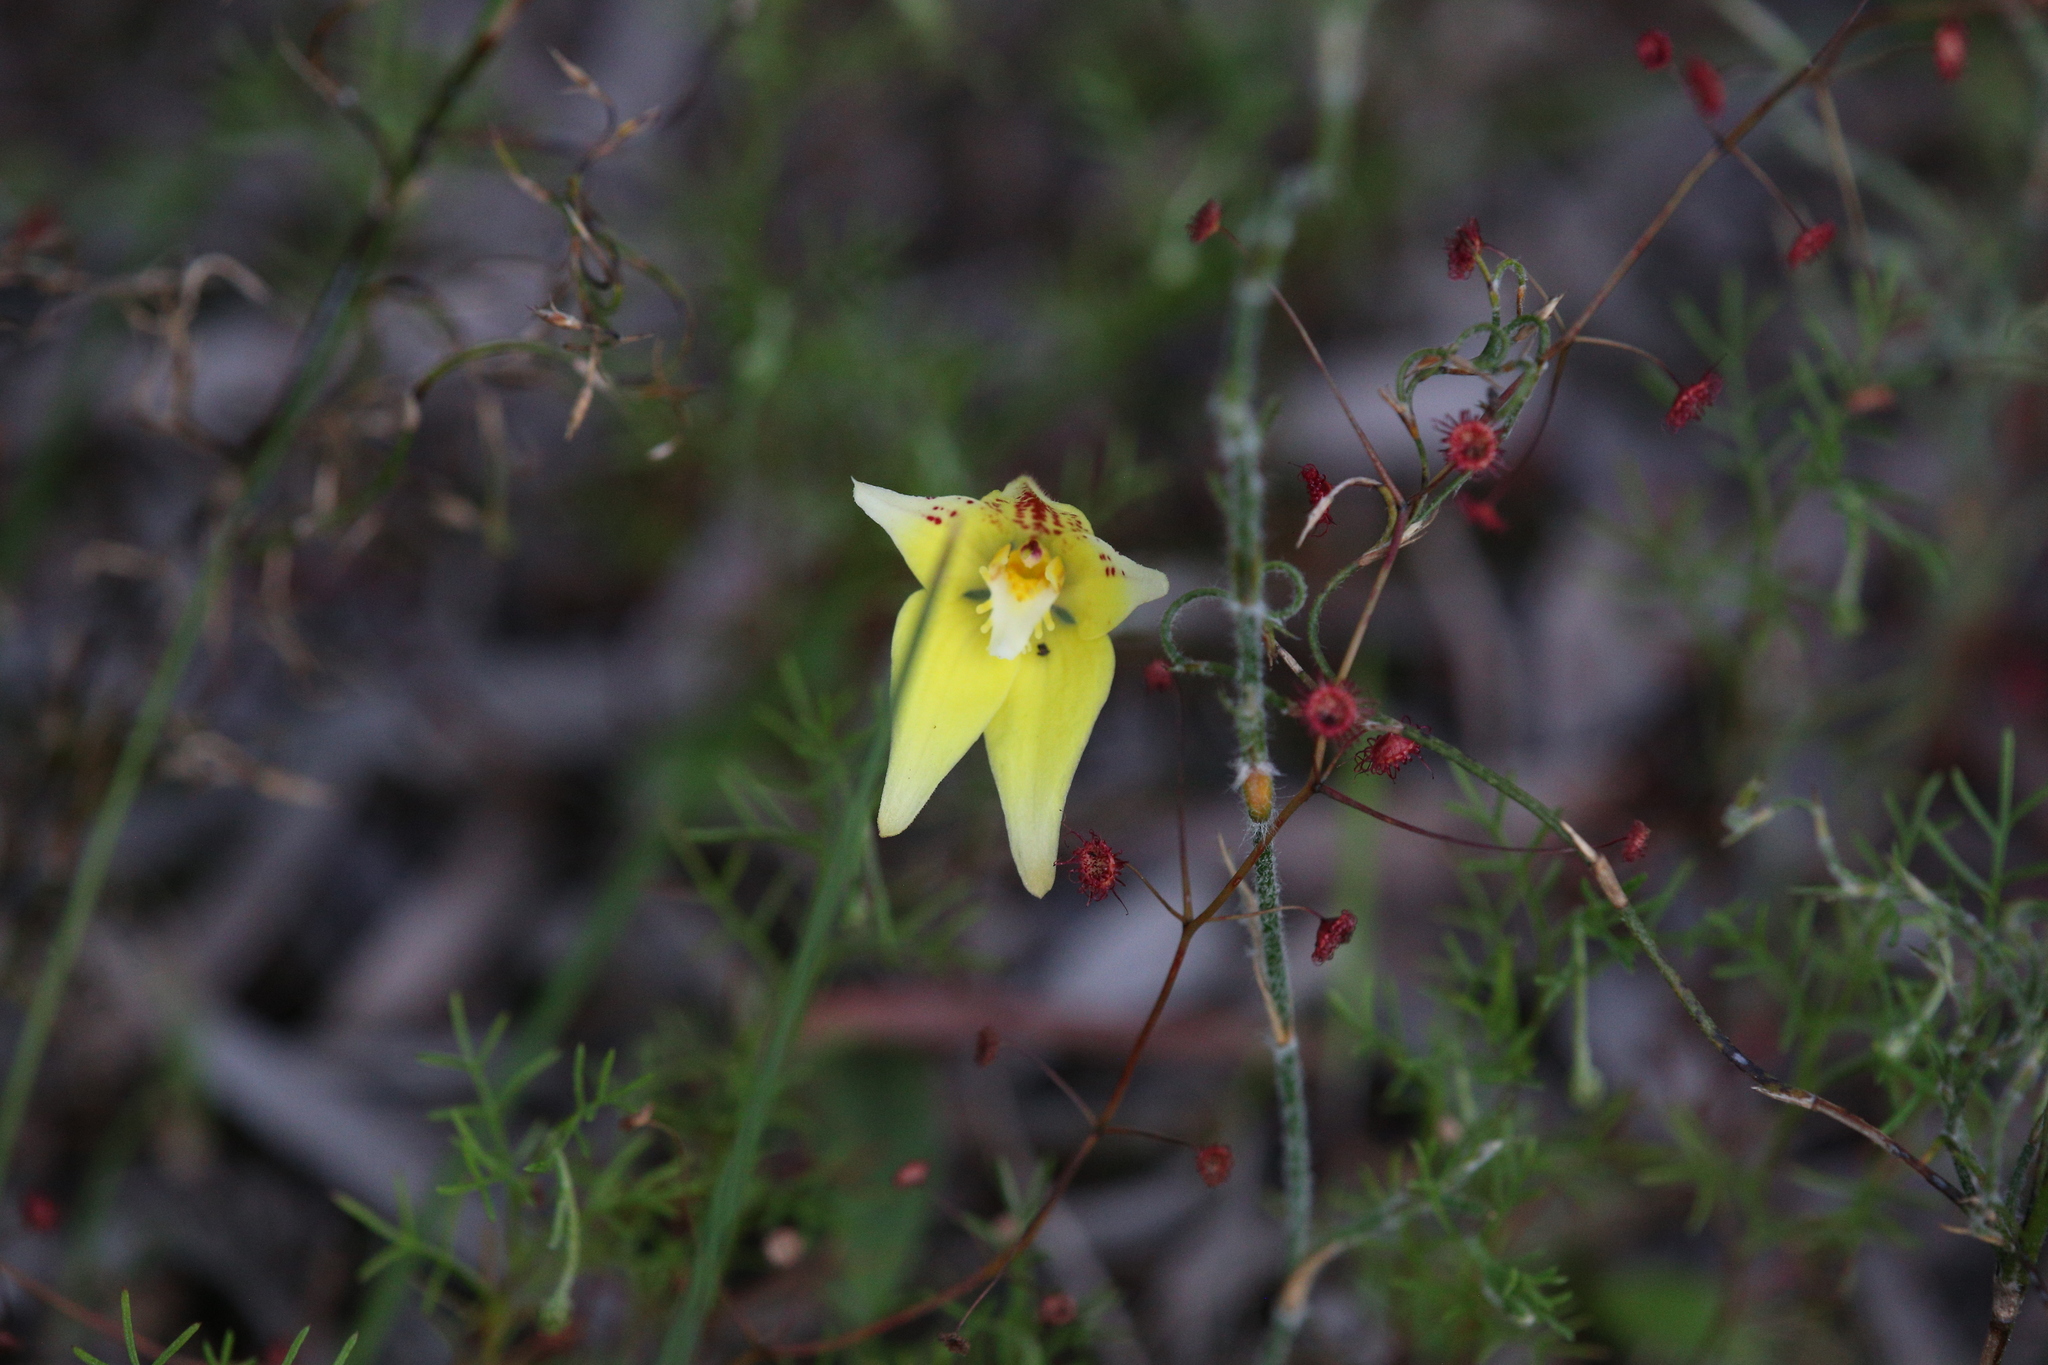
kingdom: Plantae
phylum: Tracheophyta
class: Liliopsida
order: Asparagales
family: Orchidaceae
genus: Caladenia
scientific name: Caladenia flava
